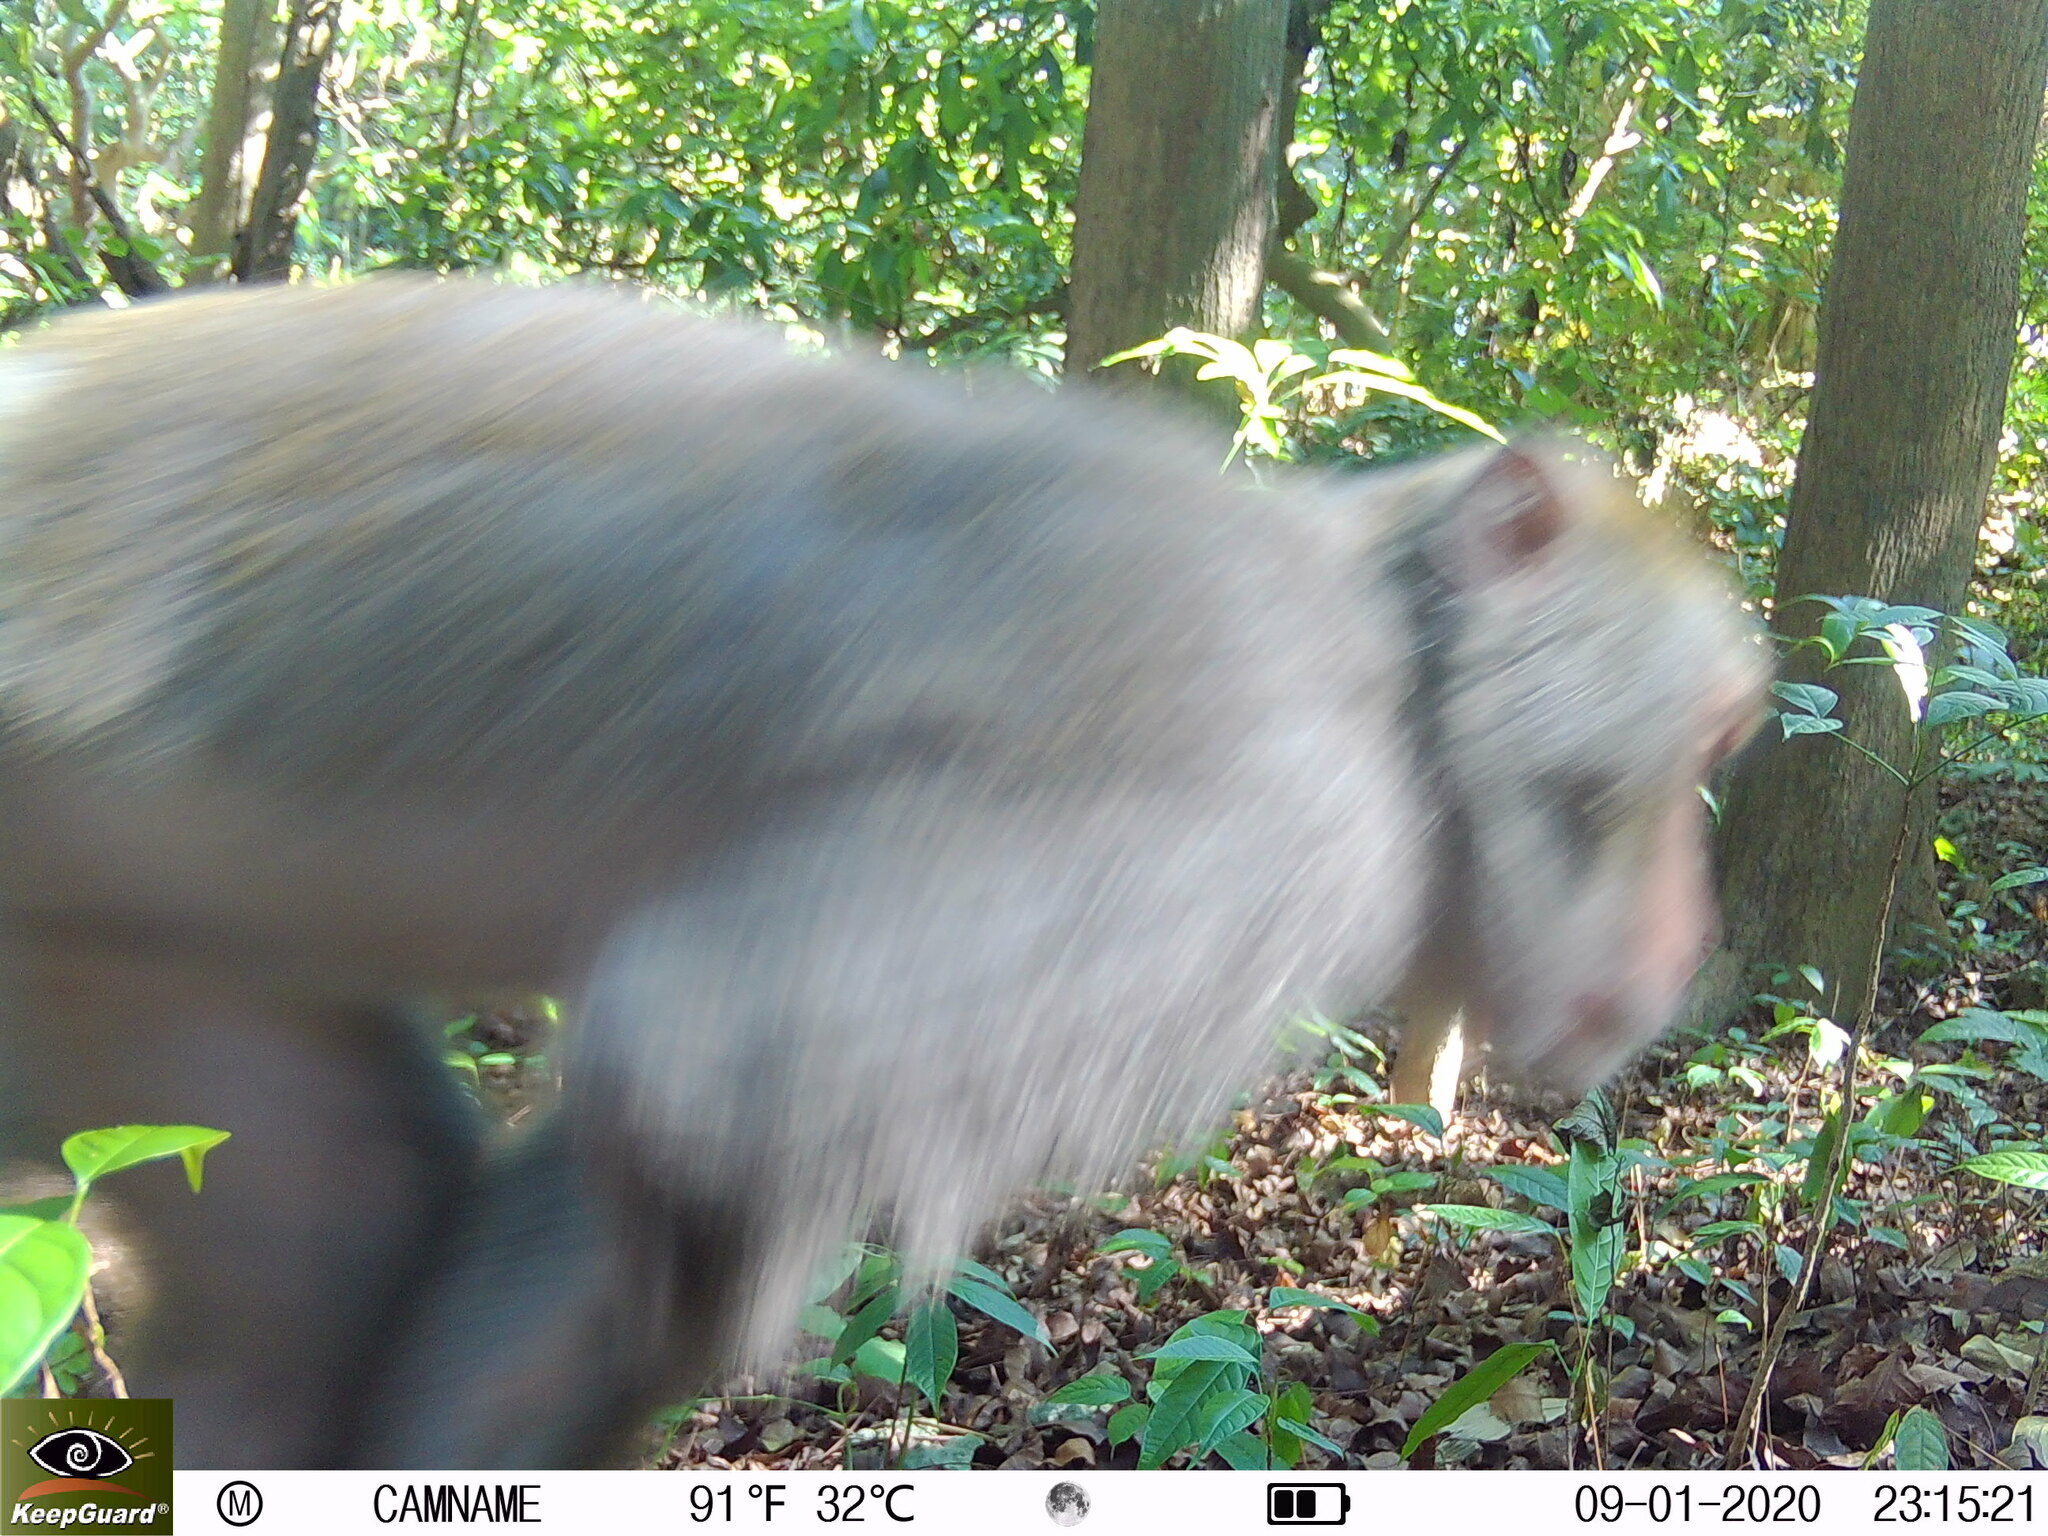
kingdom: Animalia
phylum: Chordata
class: Mammalia
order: Primates
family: Cercopithecidae
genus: Macaca
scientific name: Macaca cyclopis
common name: Formosan rock macaque
